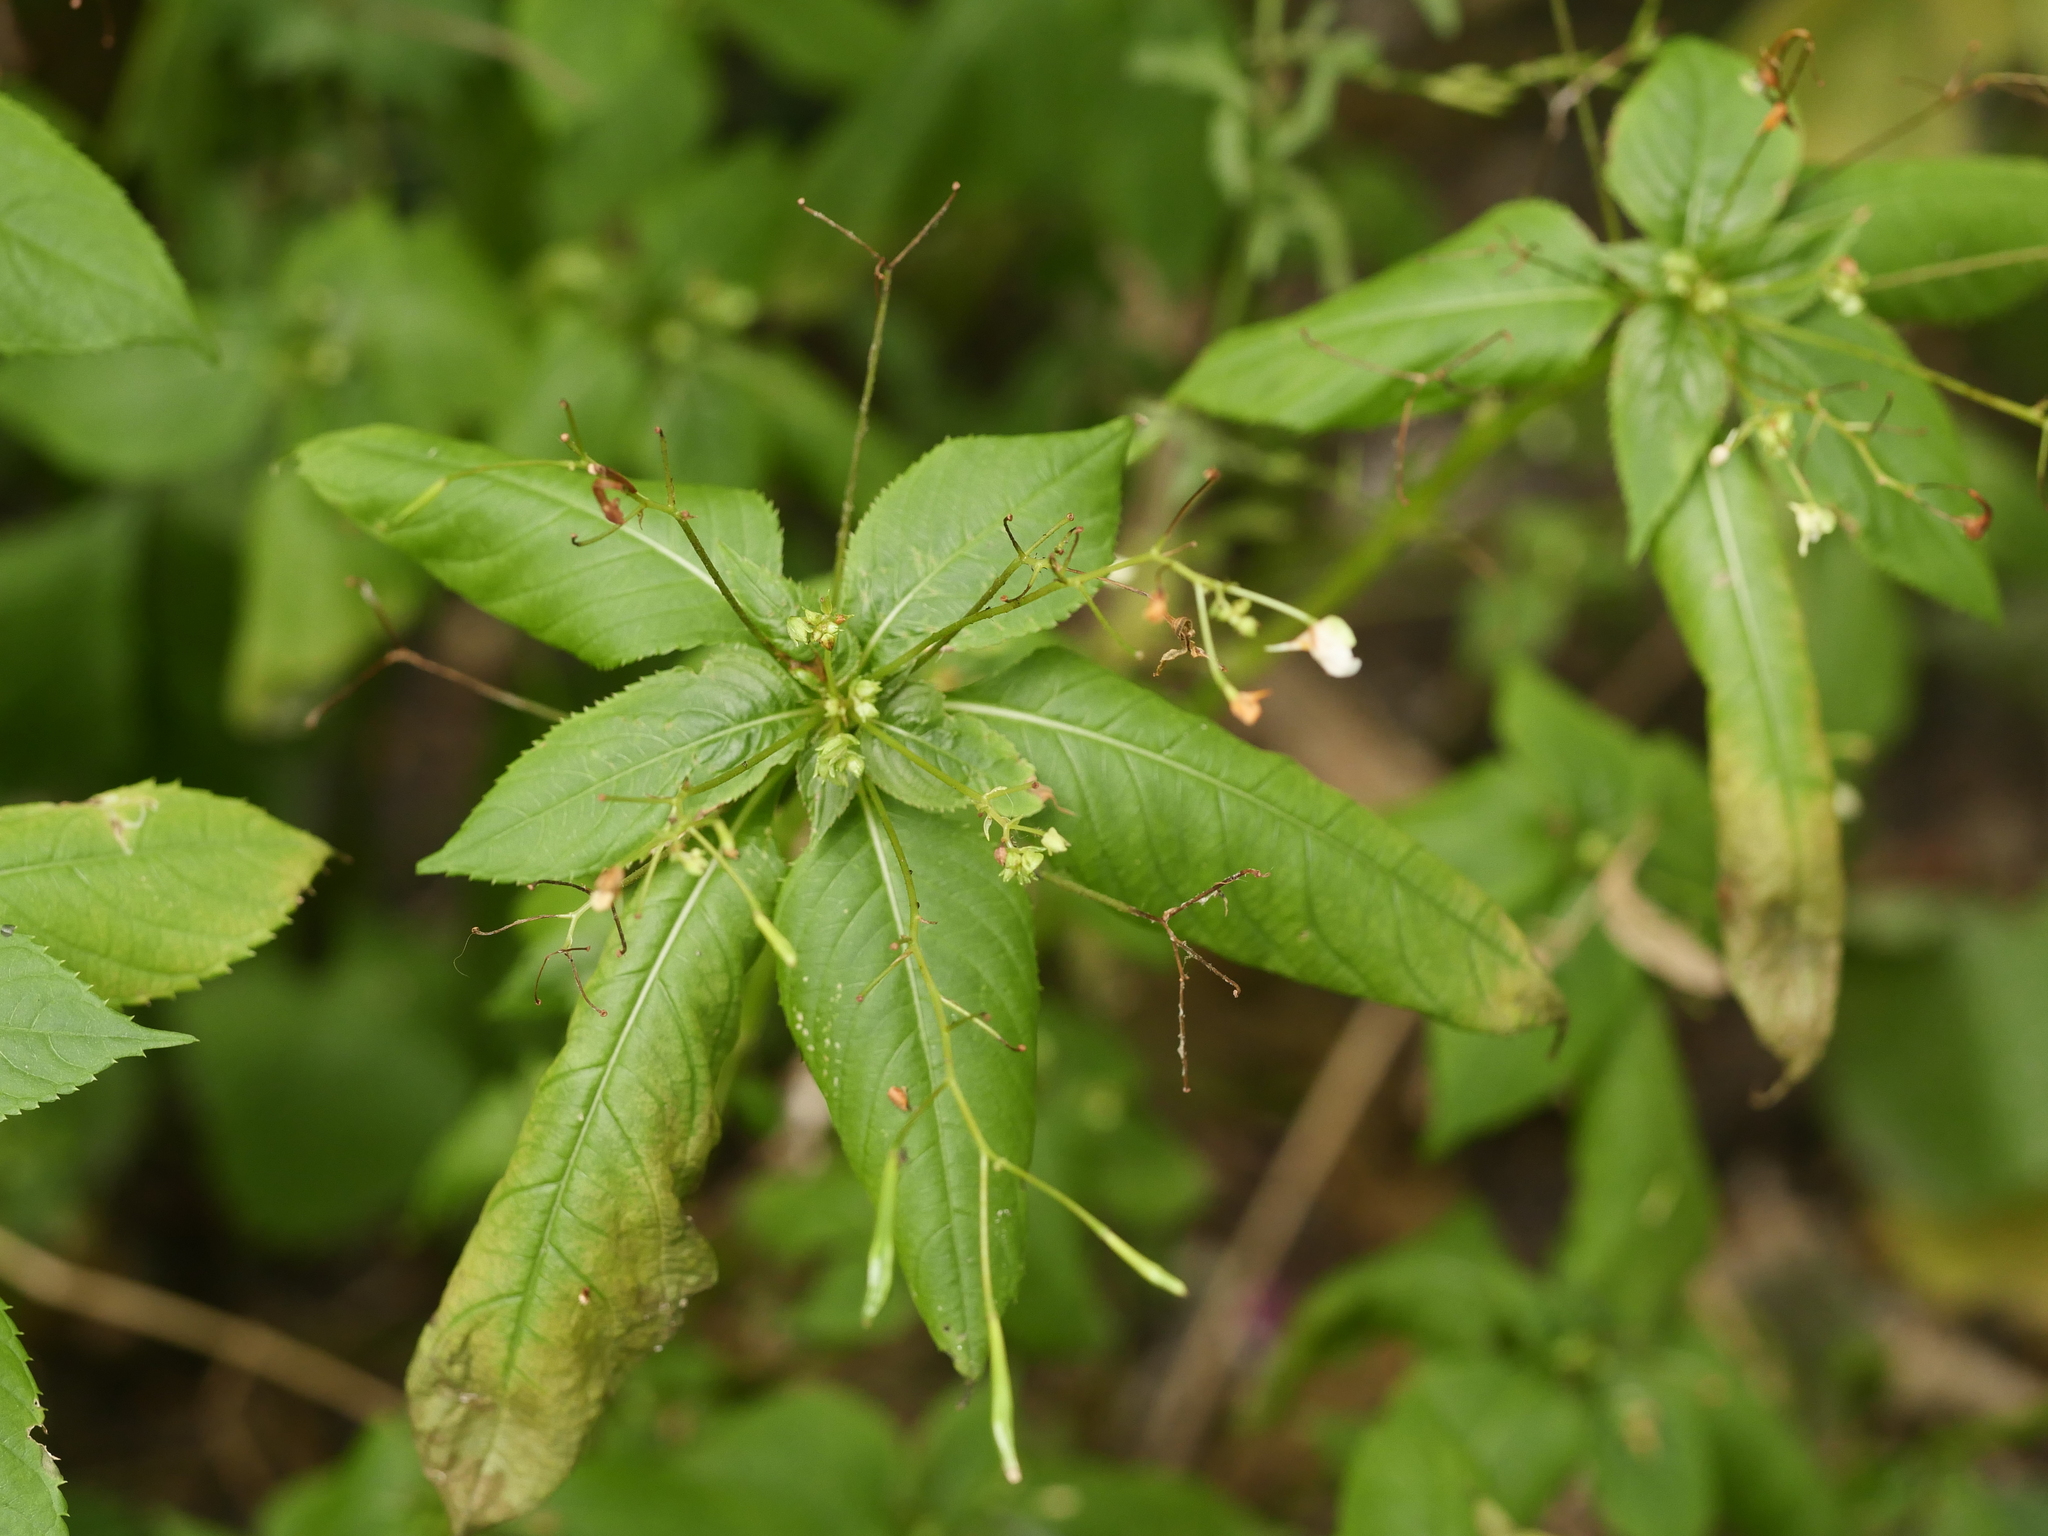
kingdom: Plantae
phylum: Tracheophyta
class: Magnoliopsida
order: Ericales
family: Balsaminaceae
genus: Impatiens
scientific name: Impatiens parviflora
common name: Small balsam
